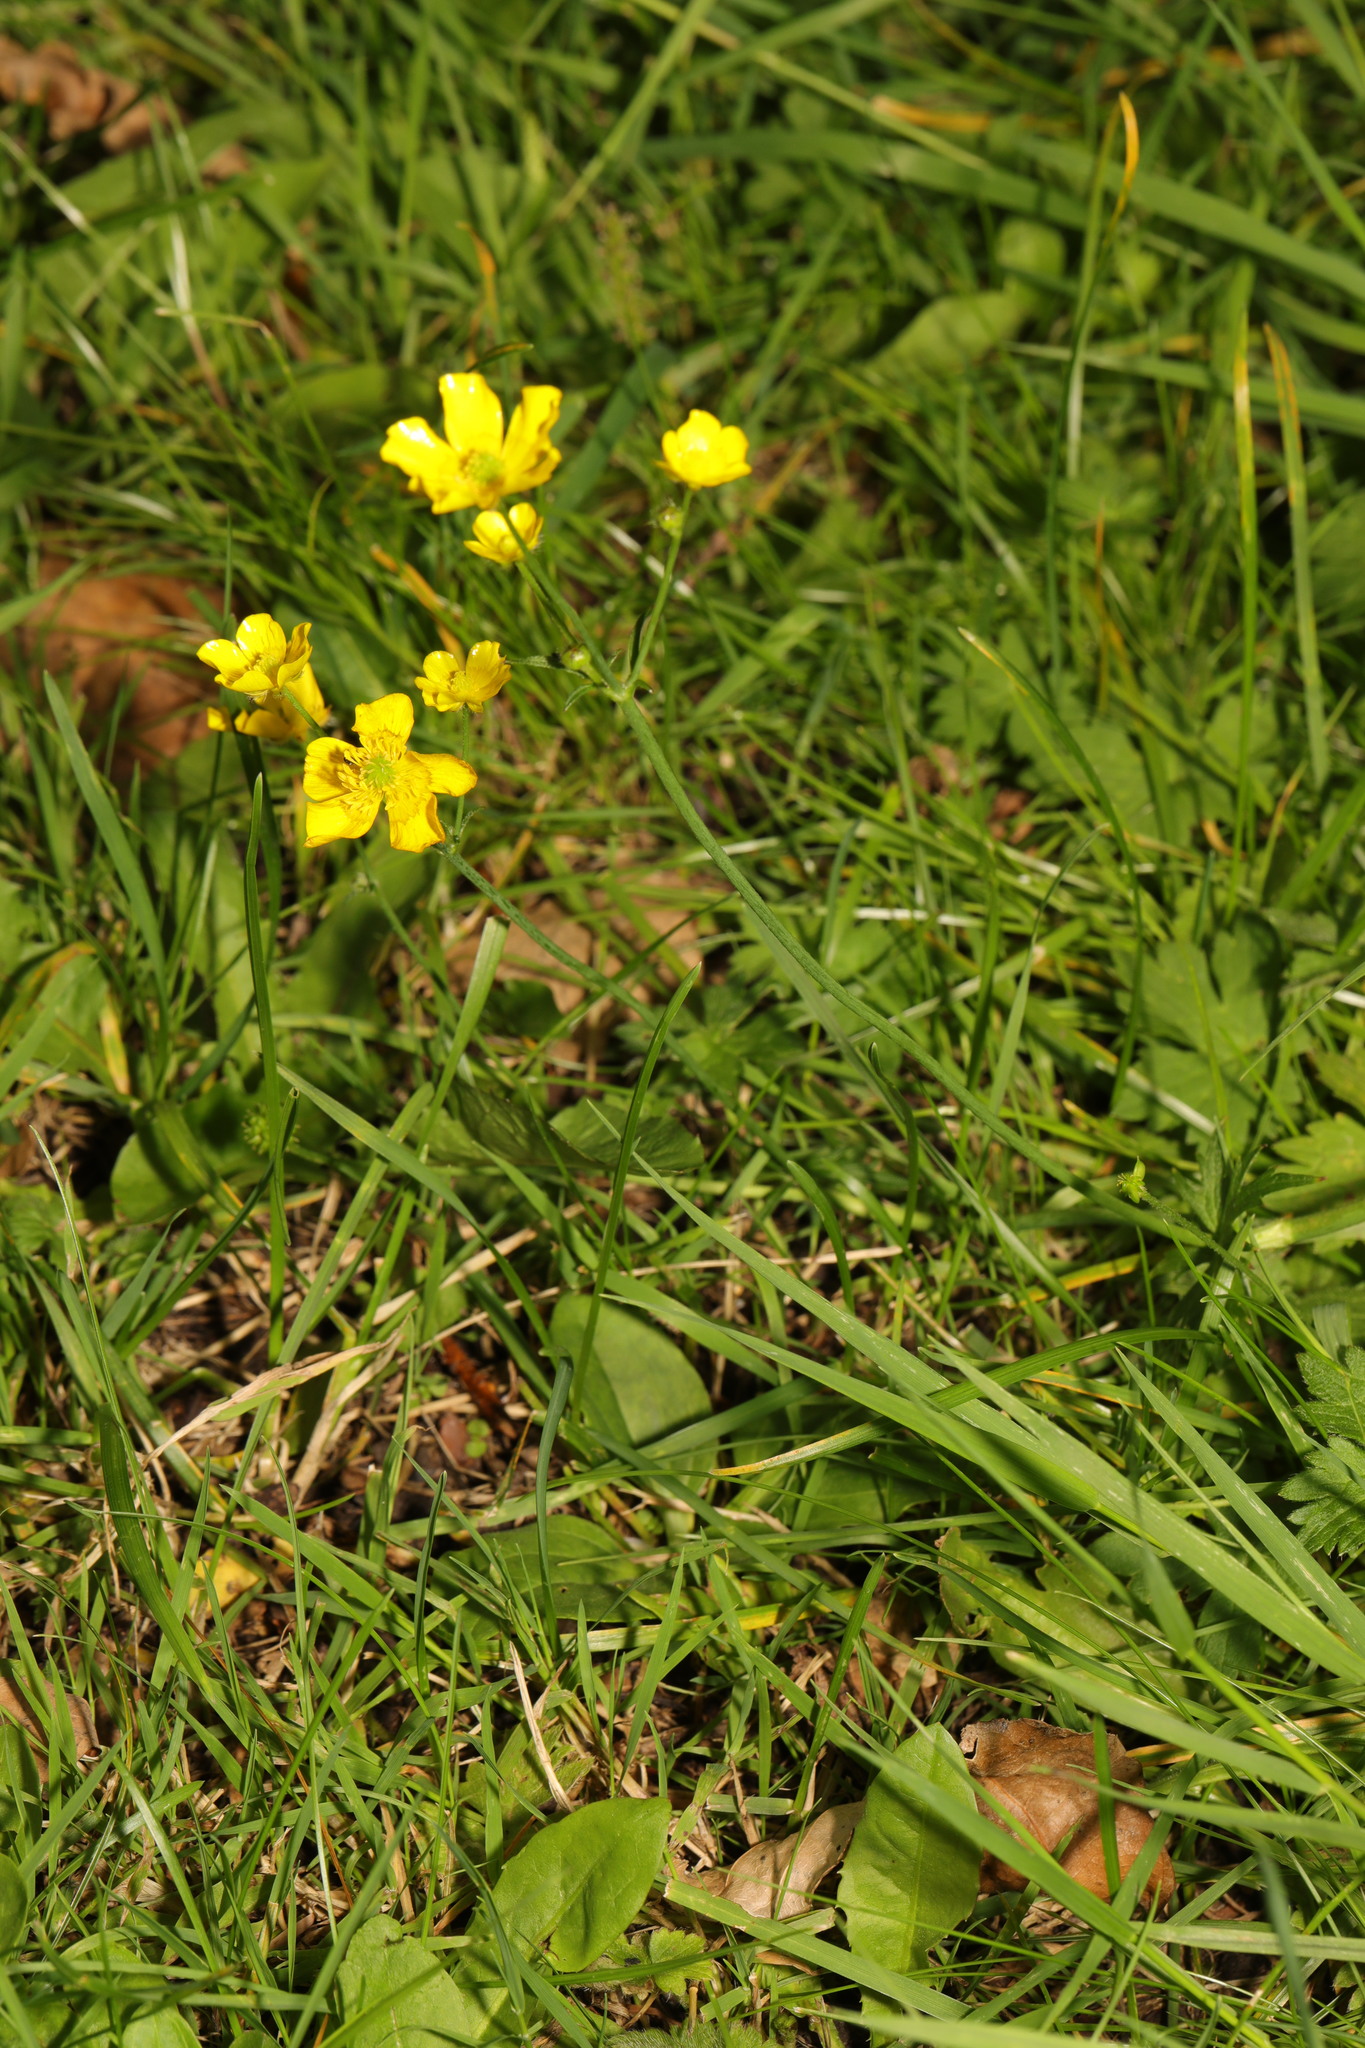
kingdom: Plantae
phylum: Tracheophyta
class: Magnoliopsida
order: Ranunculales
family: Ranunculaceae
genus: Ranunculus
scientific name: Ranunculus acris
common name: Meadow buttercup
